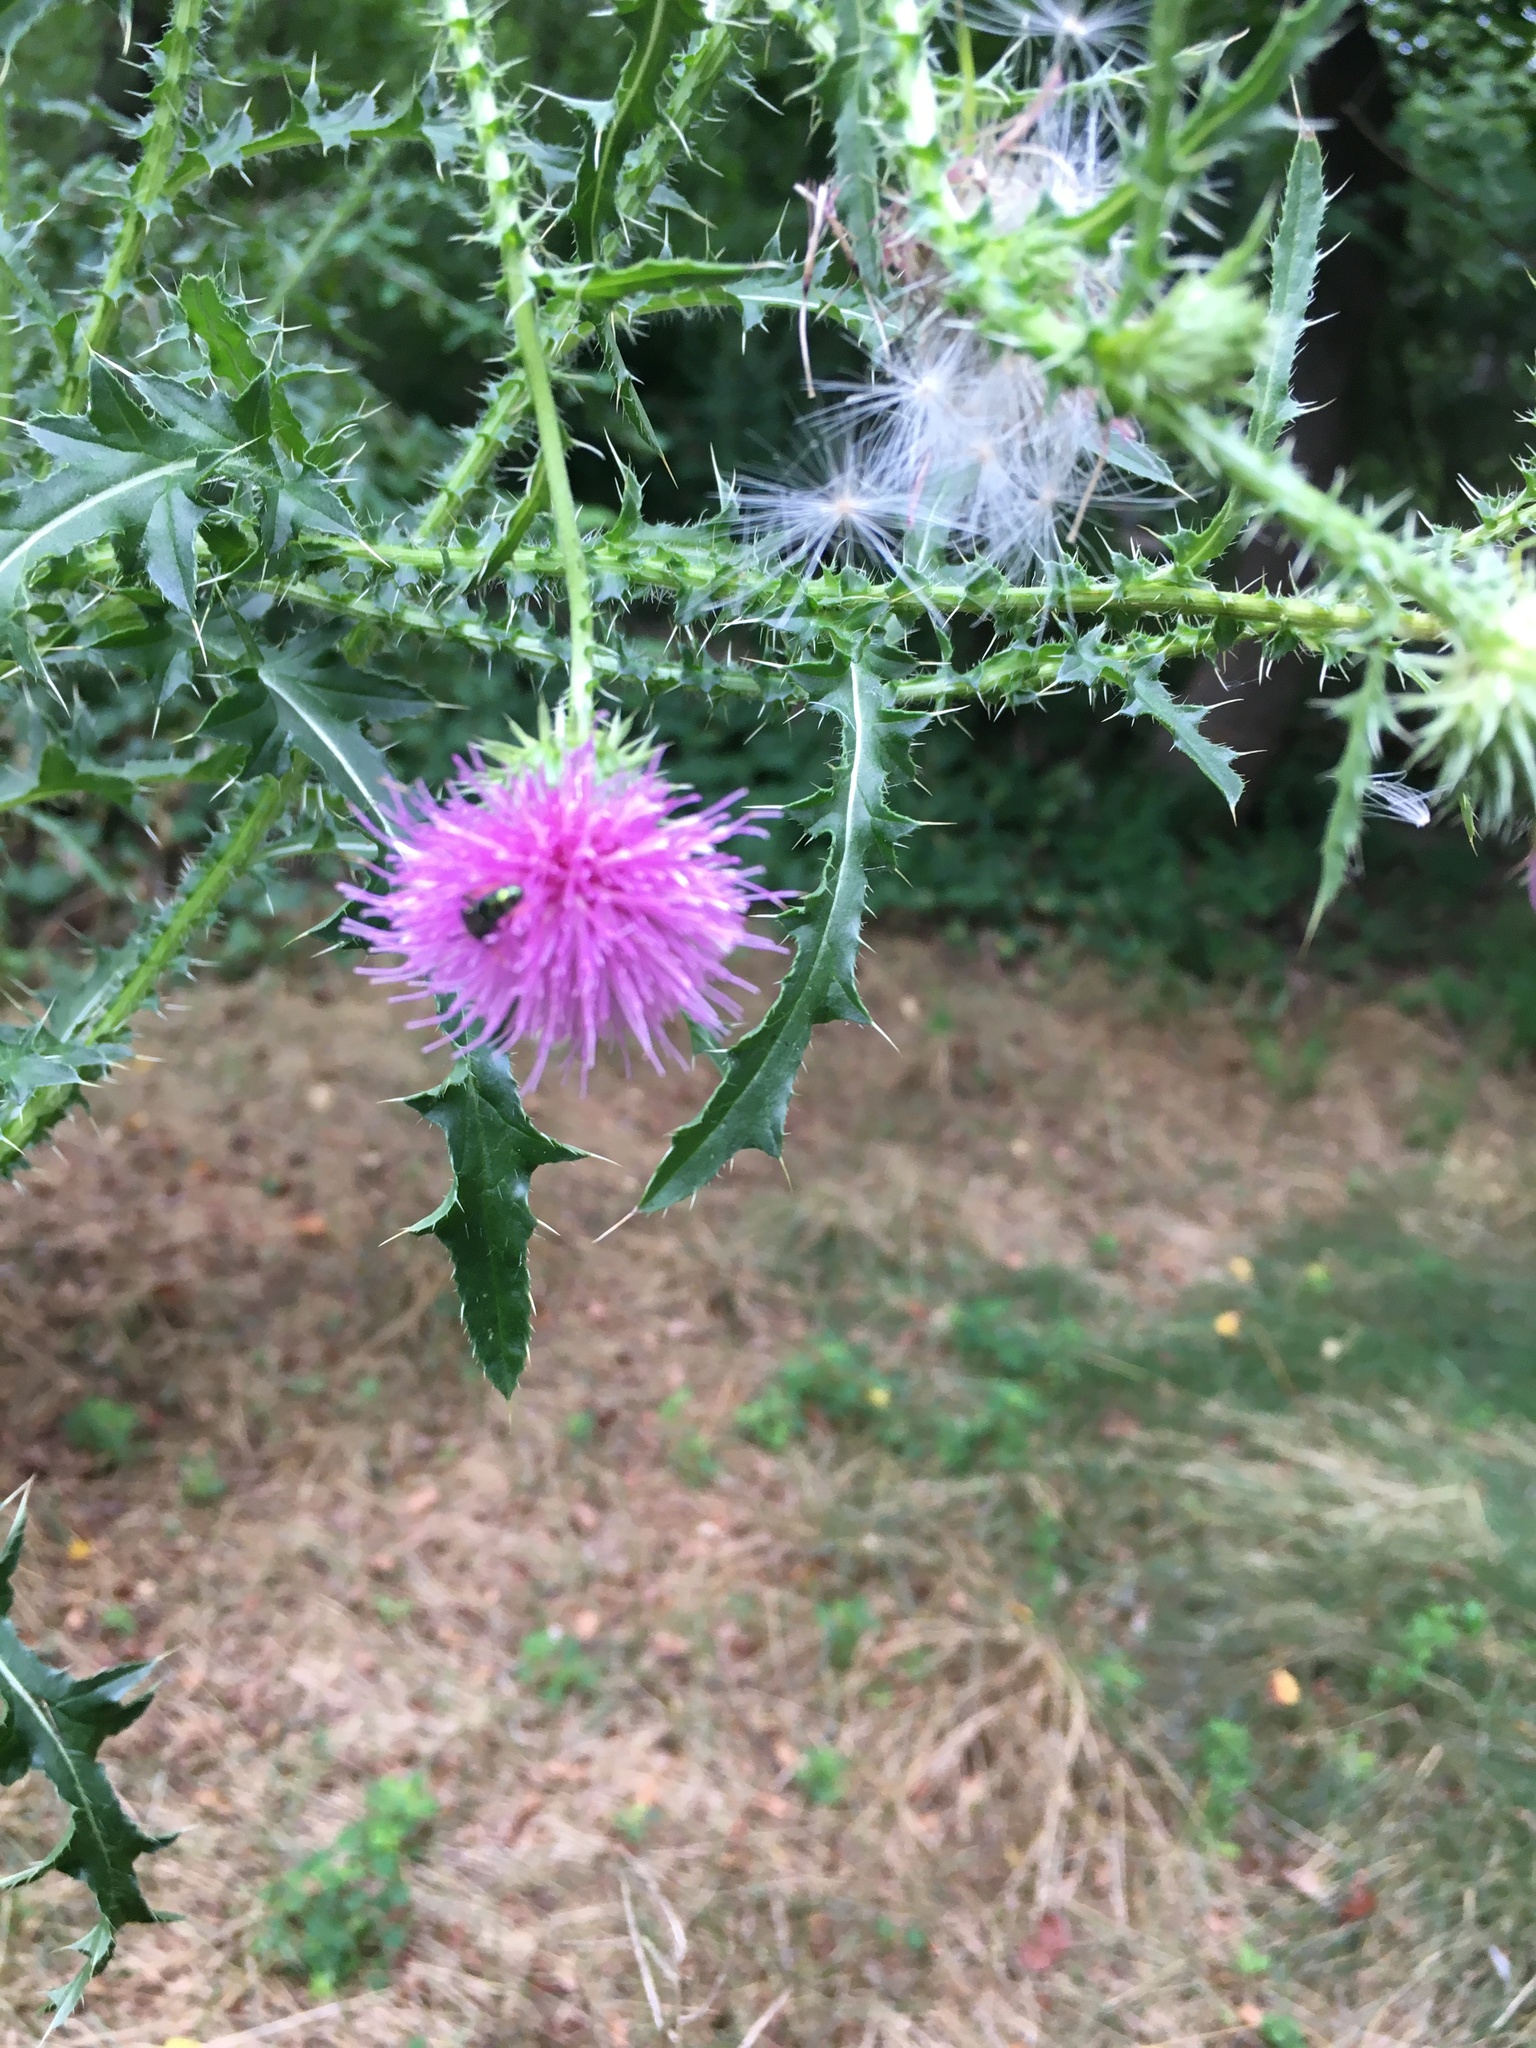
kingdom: Plantae
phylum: Tracheophyta
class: Magnoliopsida
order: Asterales
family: Asteraceae
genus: Carduus
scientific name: Carduus acanthoides
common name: Plumeless thistle
